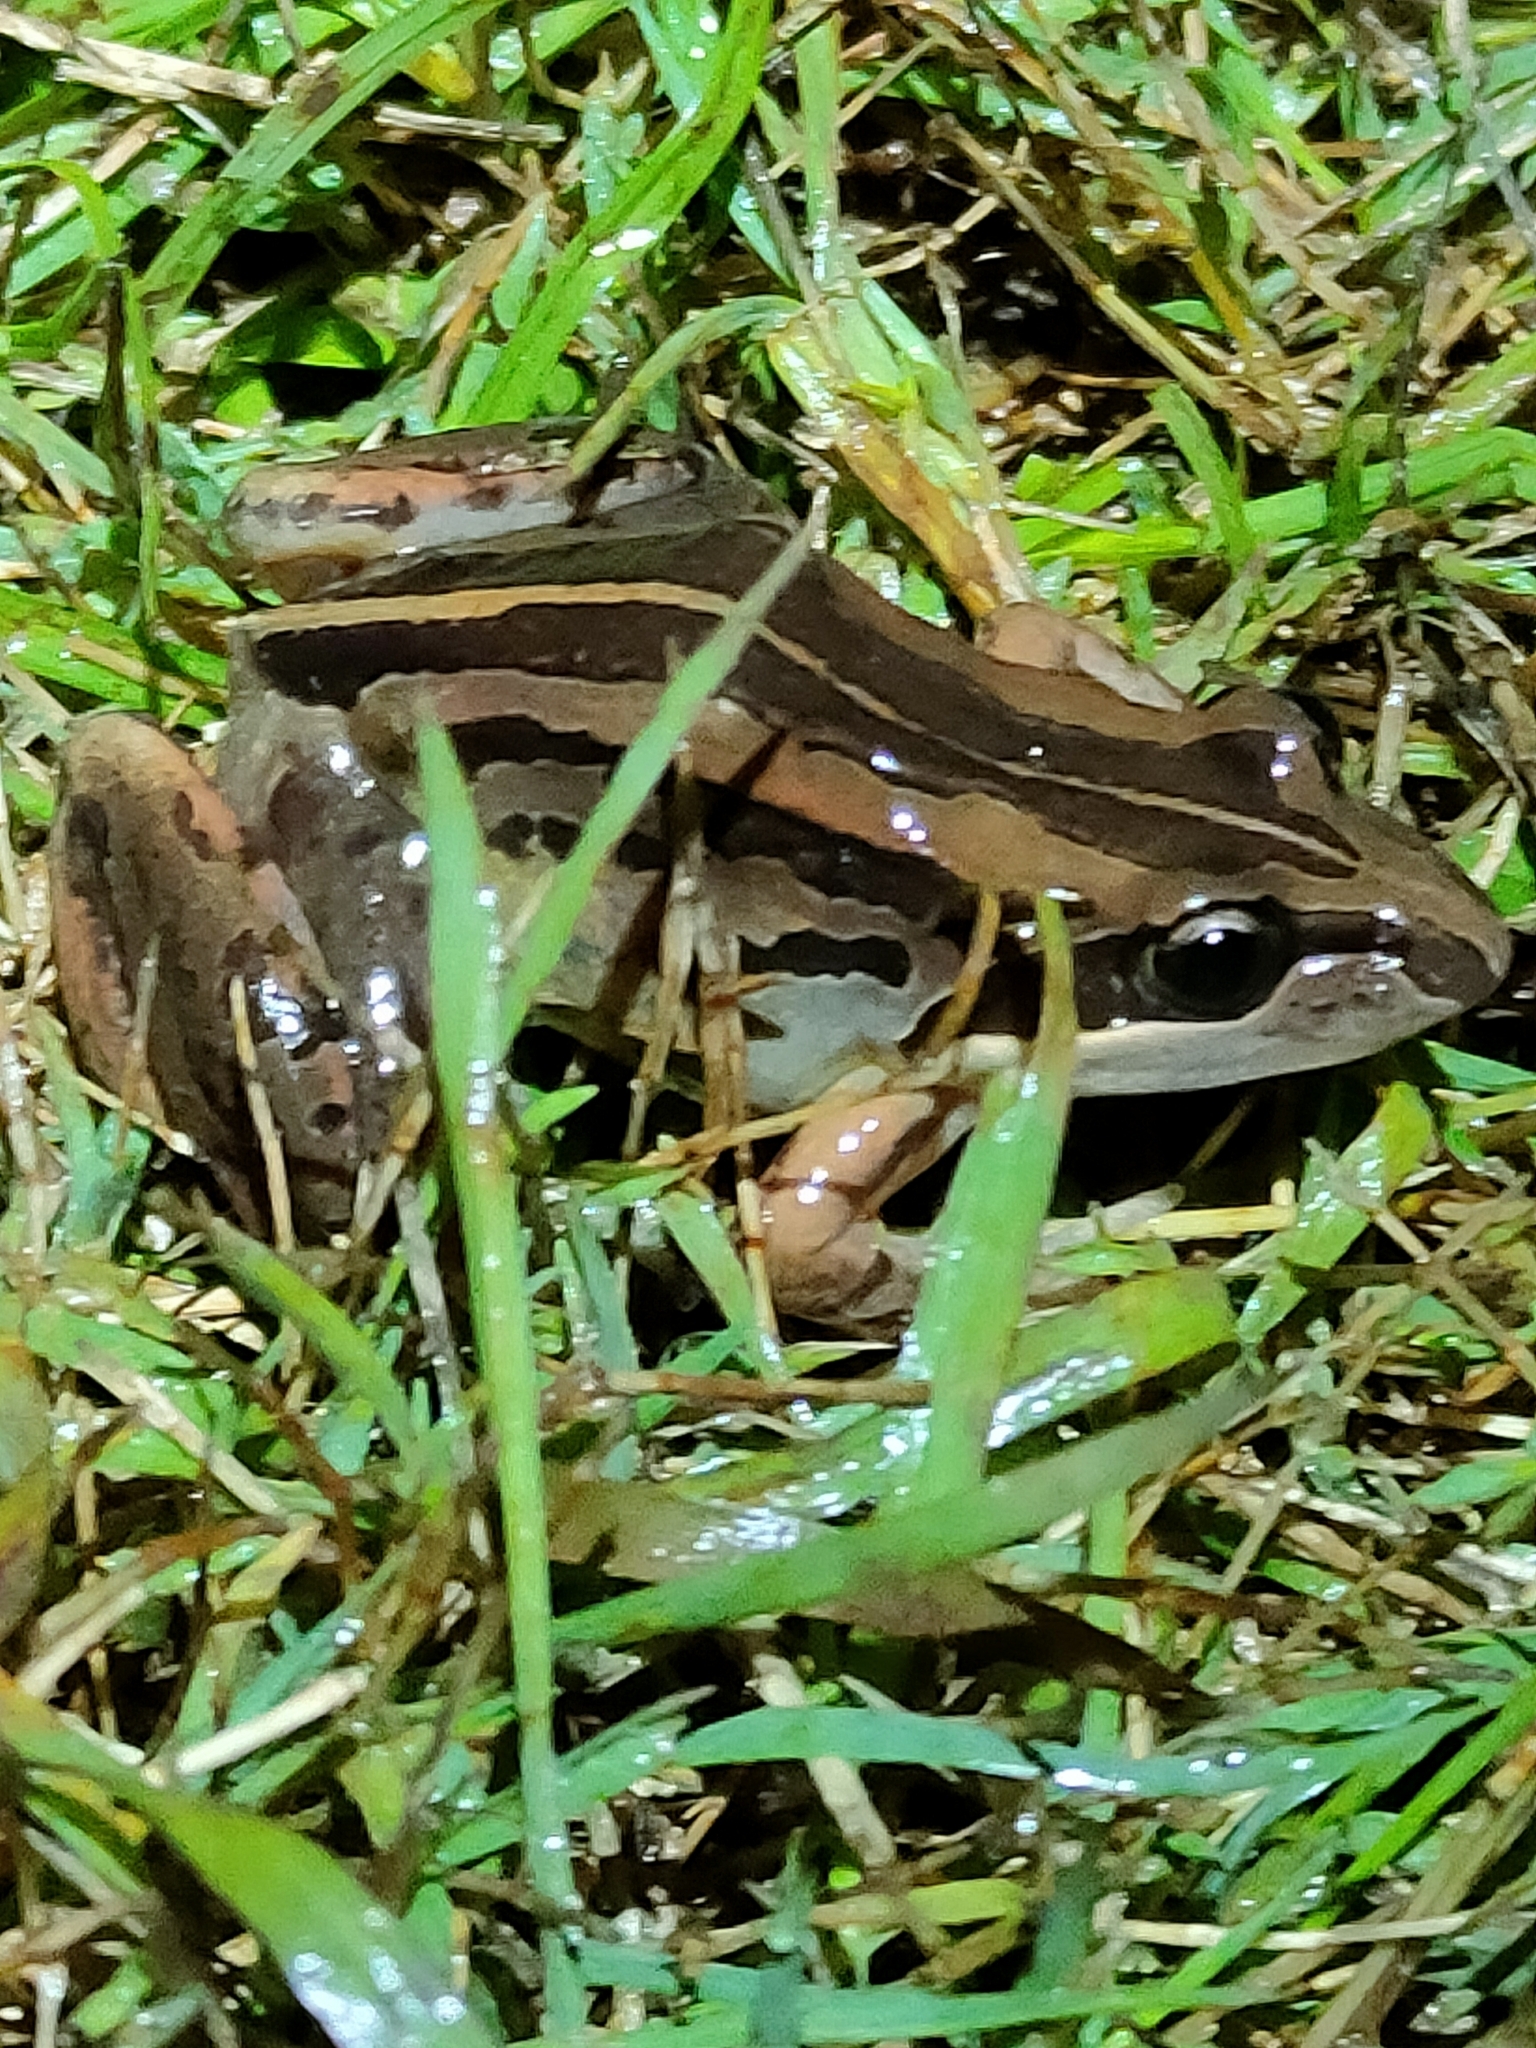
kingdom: Animalia
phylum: Chordata
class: Amphibia
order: Anura
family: Limnodynastidae
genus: Limnodynastes
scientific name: Limnodynastes peronii
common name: Brown frog
